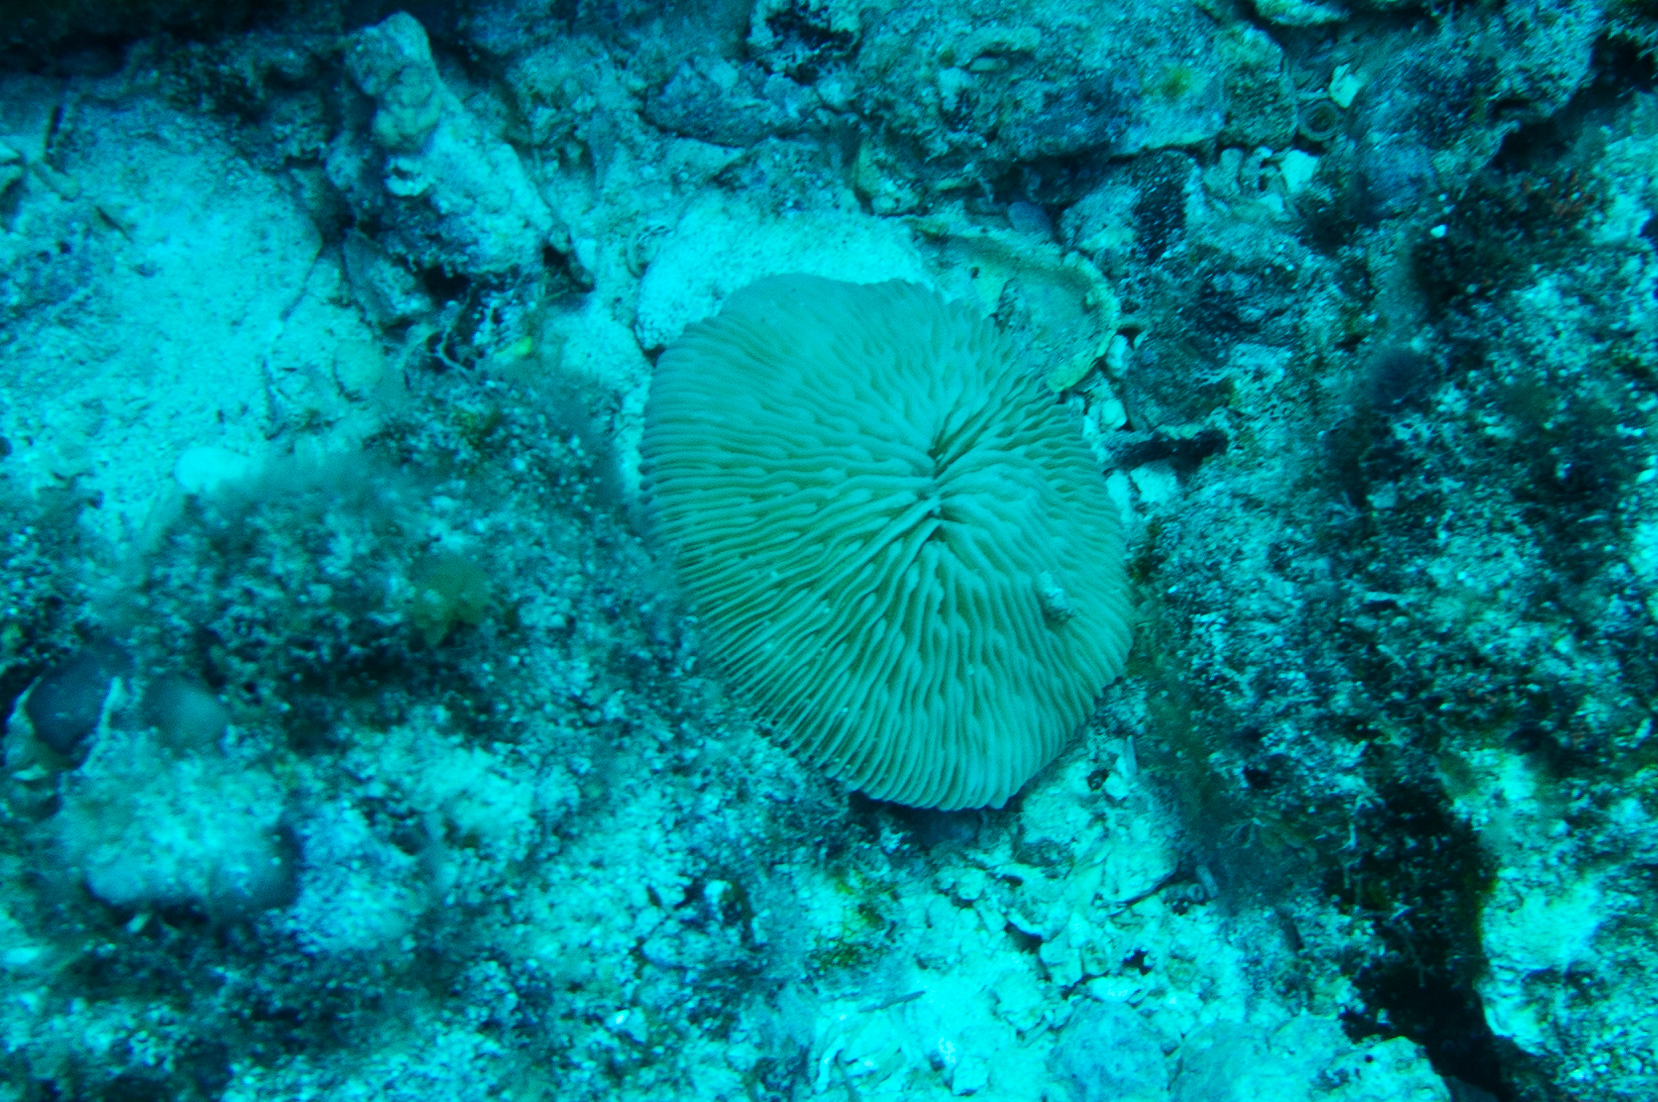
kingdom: Animalia
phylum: Cnidaria
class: Anthozoa
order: Scleractinia
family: Fungiidae
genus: Pleuractis
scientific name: Pleuractis granulosa
